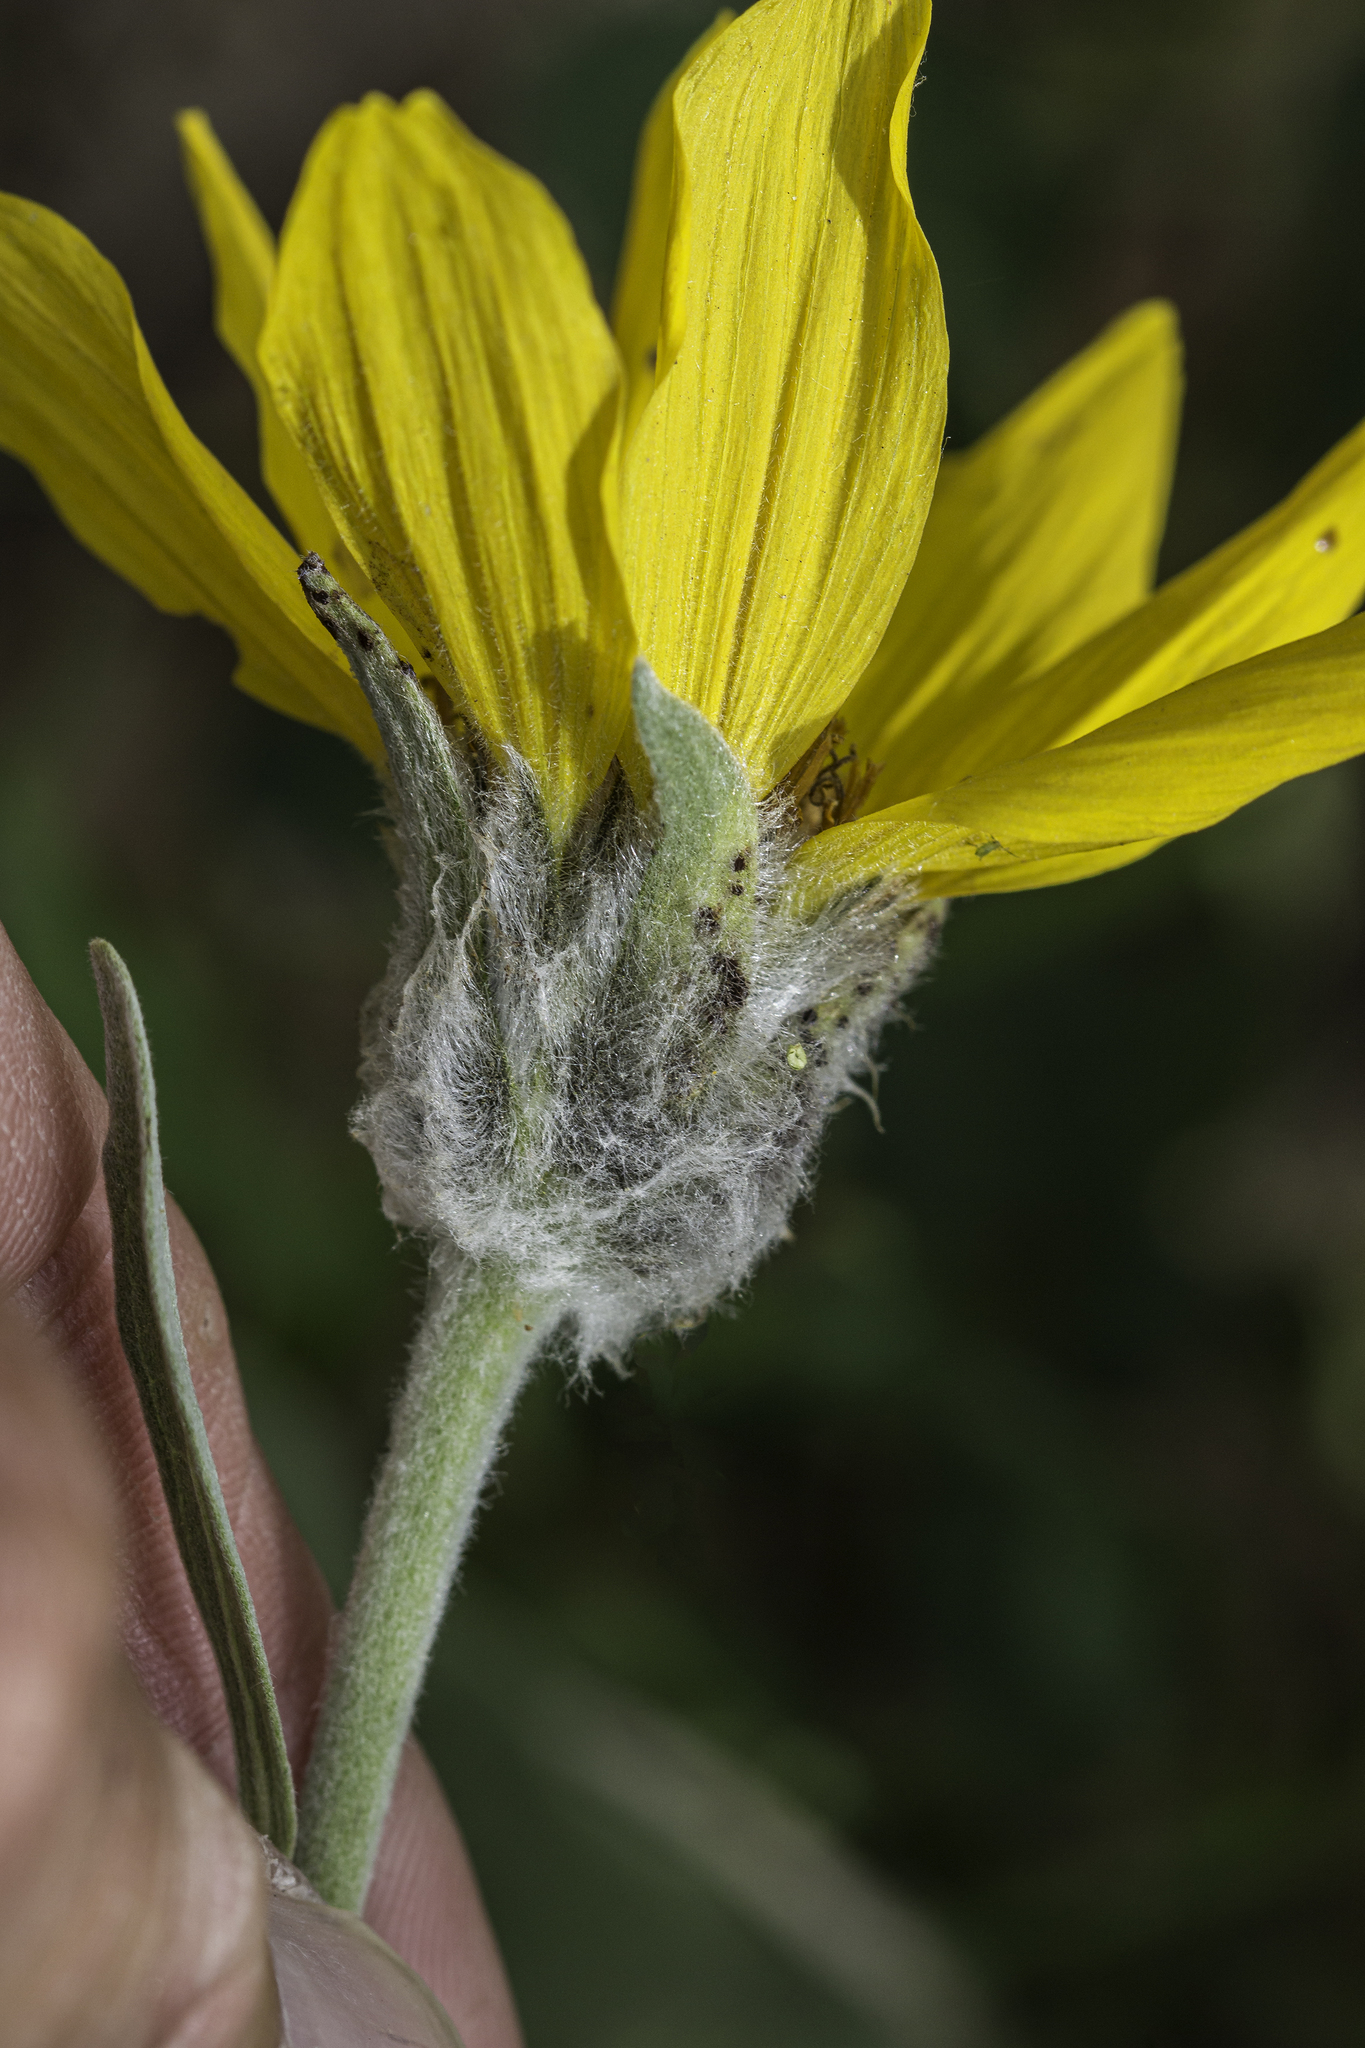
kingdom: Plantae
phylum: Tracheophyta
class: Magnoliopsida
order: Asterales
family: Asteraceae
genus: Wyethia
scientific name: Wyethia sagittata
